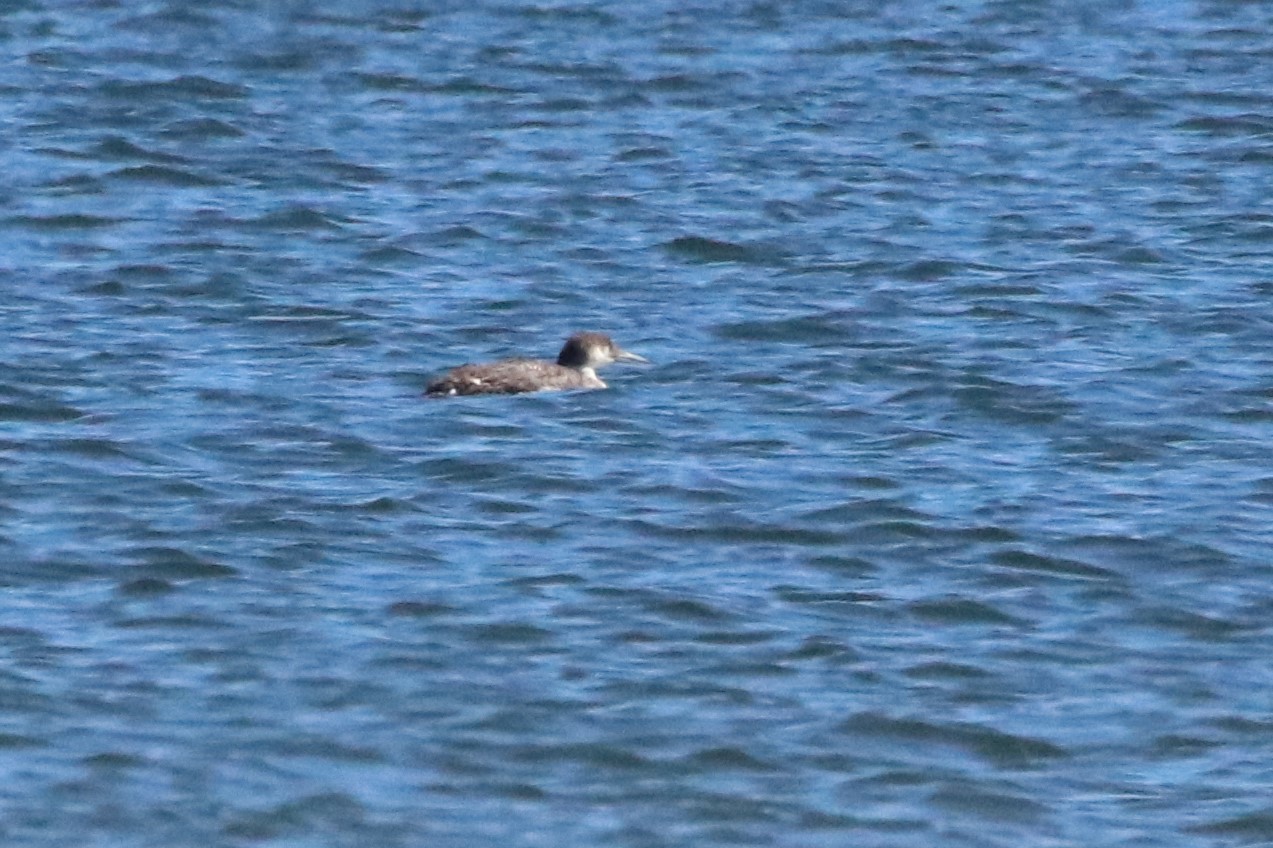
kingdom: Animalia
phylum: Chordata
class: Aves
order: Gaviiformes
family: Gaviidae
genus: Gavia
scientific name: Gavia immer
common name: Common loon
